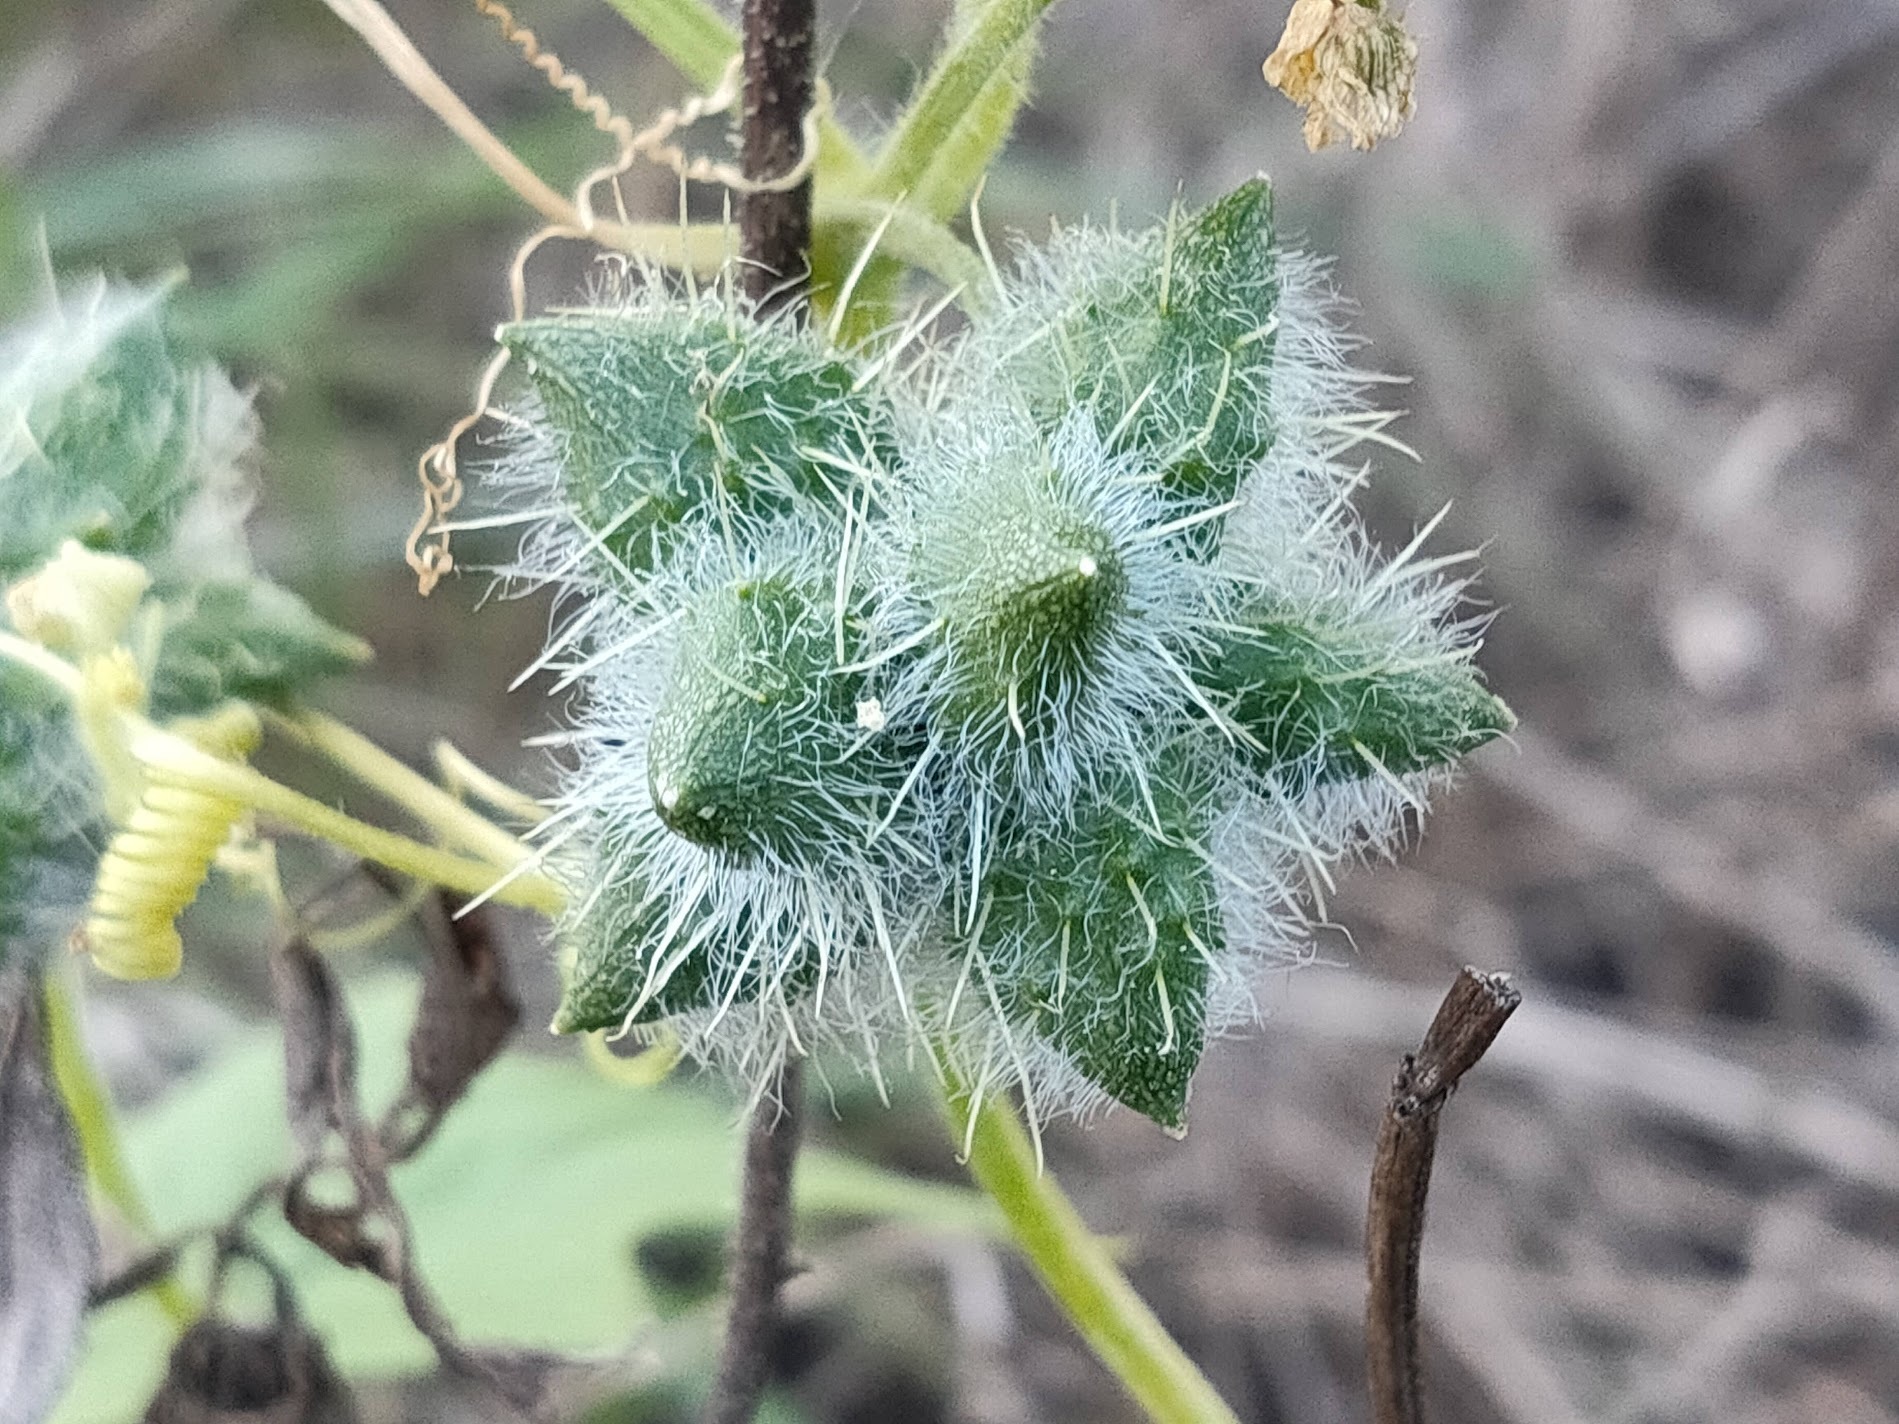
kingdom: Plantae
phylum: Tracheophyta
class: Magnoliopsida
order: Cucurbitales
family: Cucurbitaceae
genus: Sicyos
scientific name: Sicyos angulatus
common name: Angled burr cucumber
